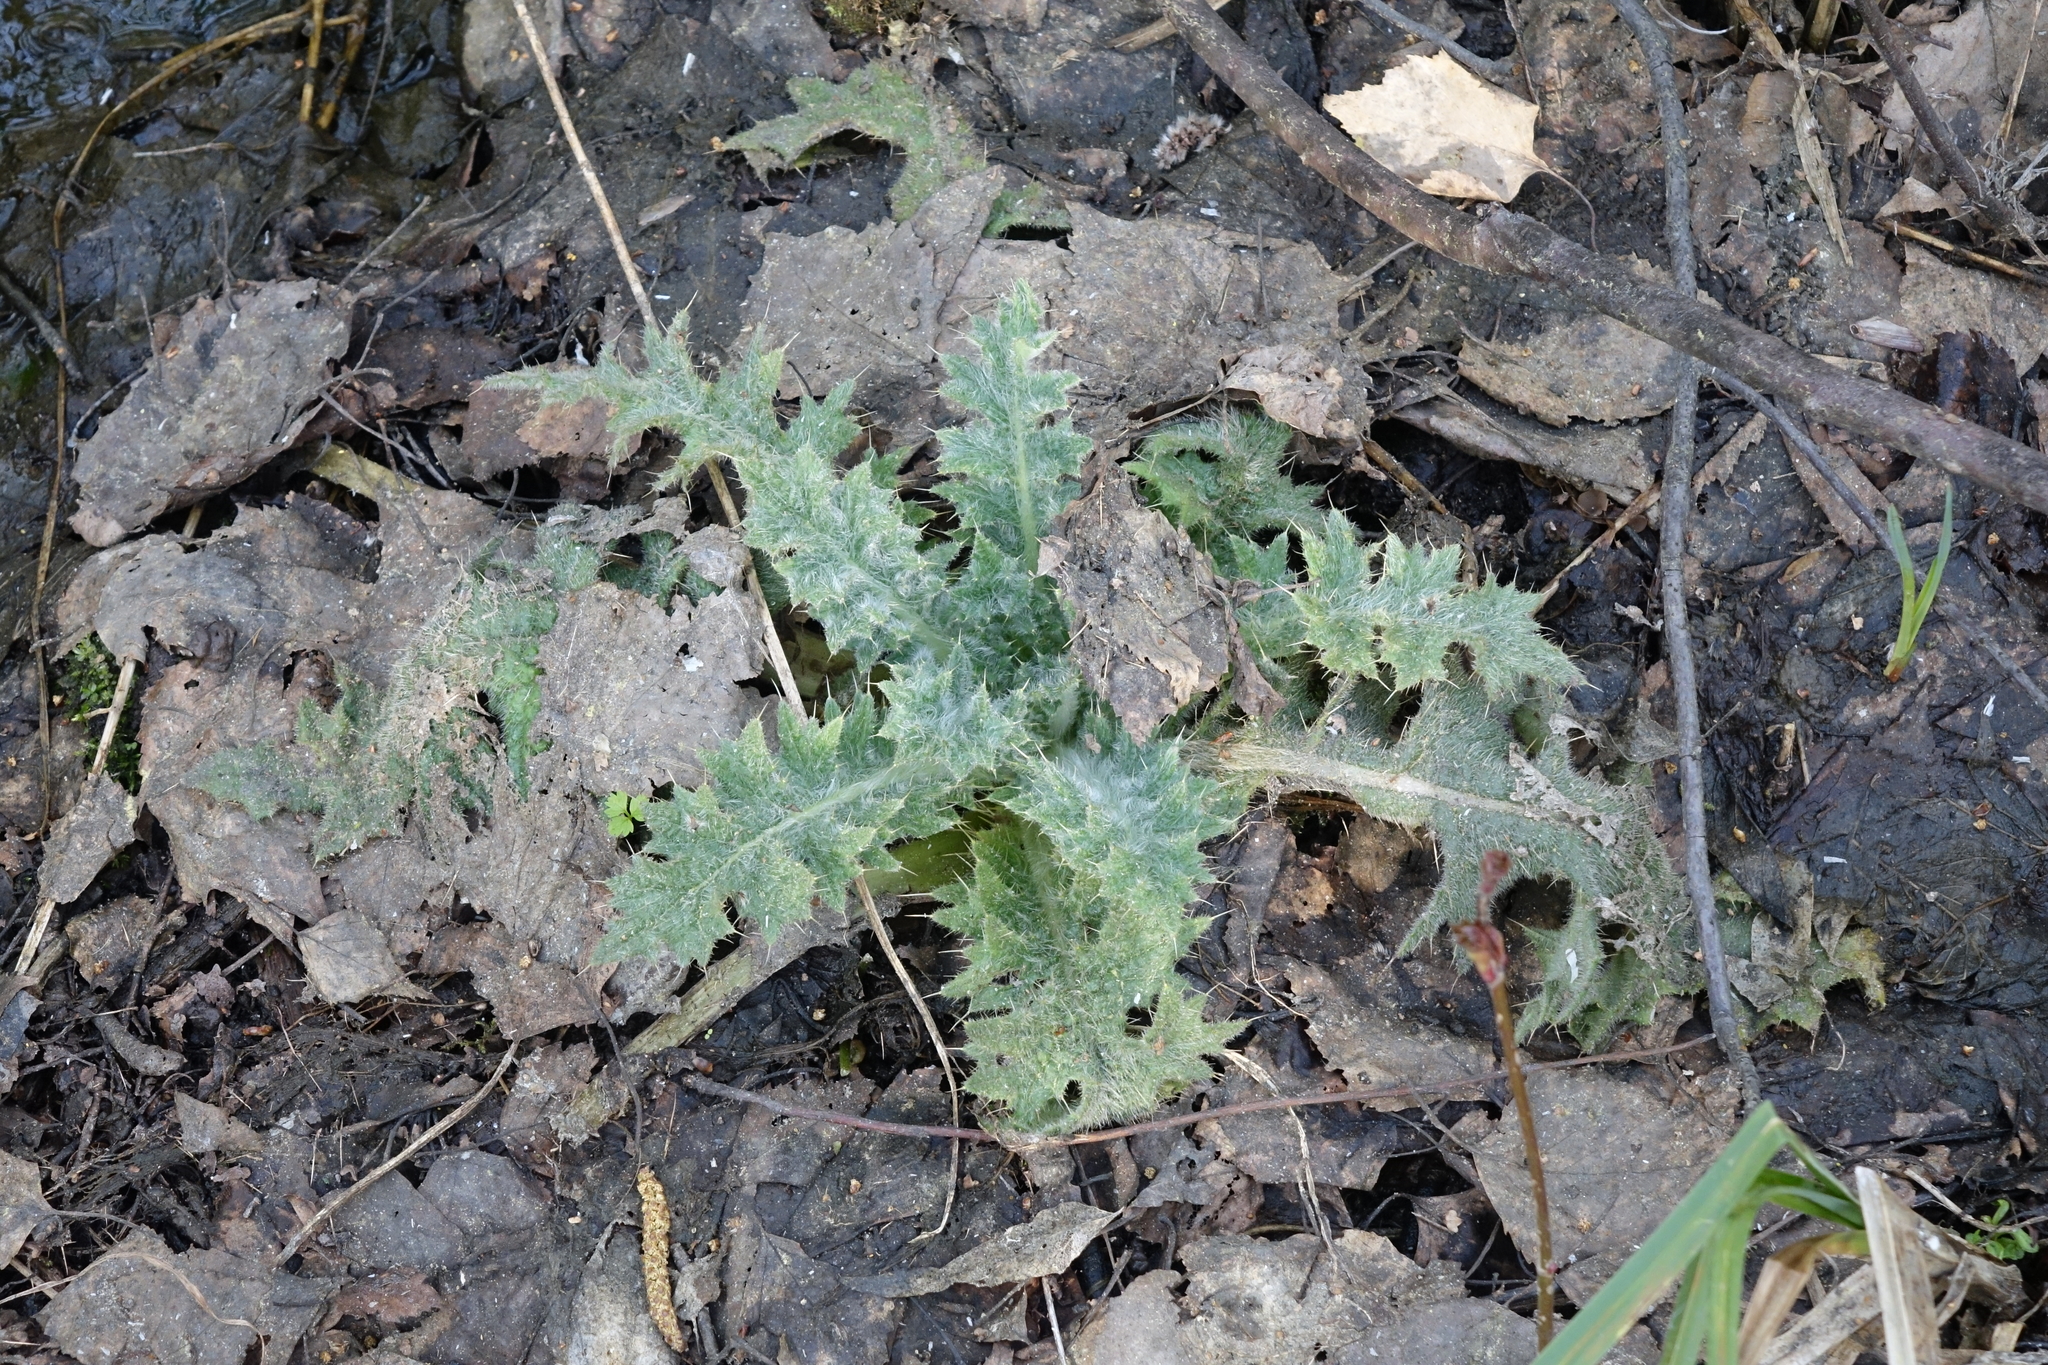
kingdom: Plantae
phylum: Tracheophyta
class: Magnoliopsida
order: Asterales
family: Asteraceae
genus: Cirsium
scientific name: Cirsium vulgare
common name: Bull thistle
